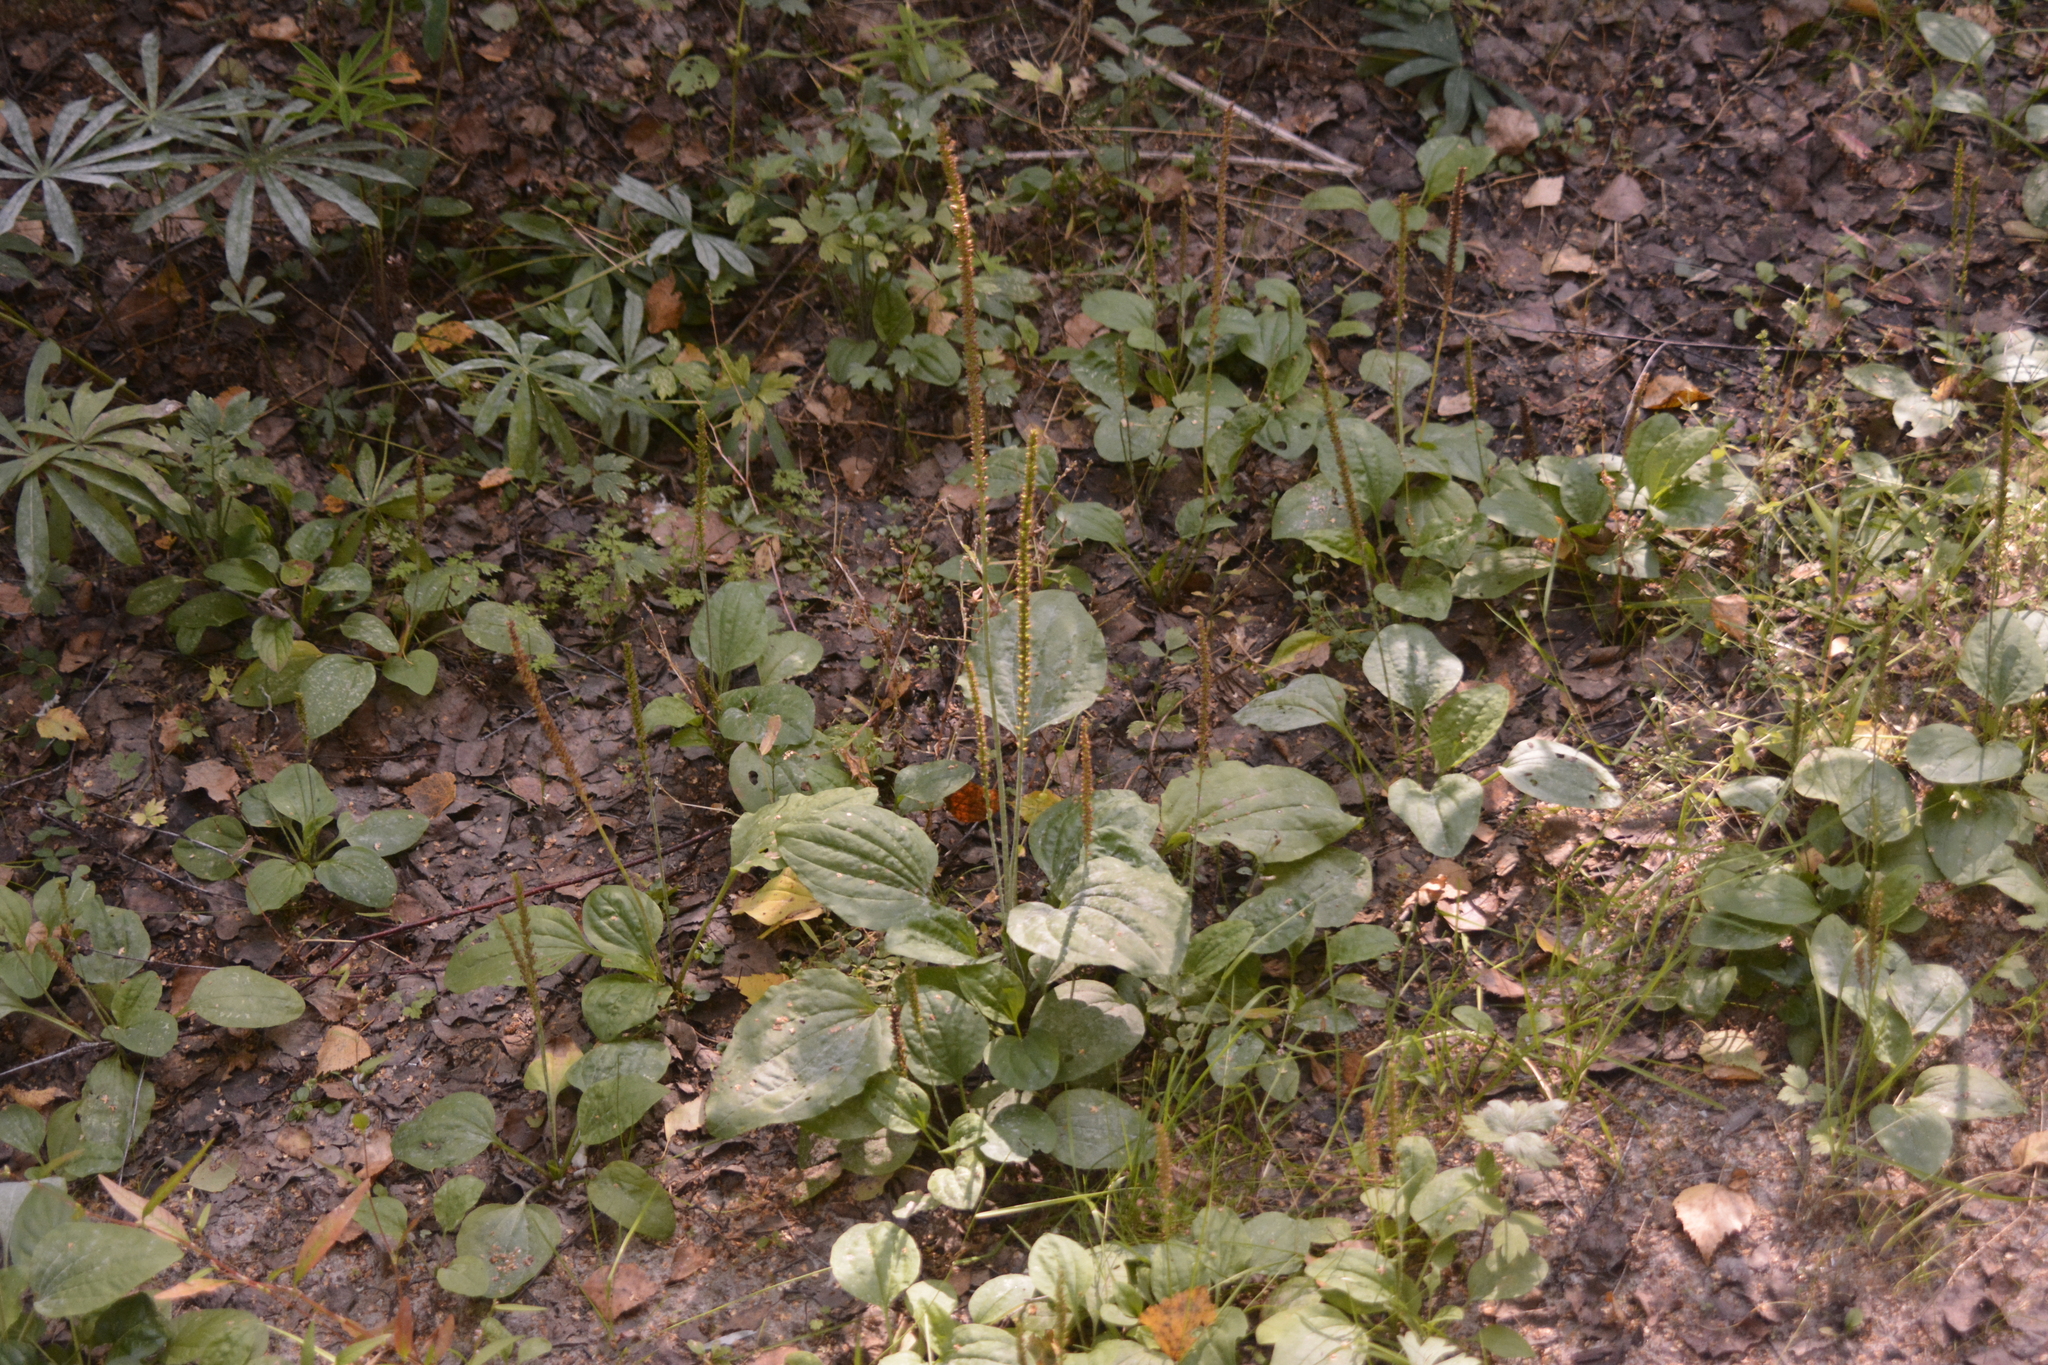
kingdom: Plantae
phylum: Tracheophyta
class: Magnoliopsida
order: Lamiales
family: Plantaginaceae
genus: Plantago
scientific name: Plantago major
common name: Common plantain
